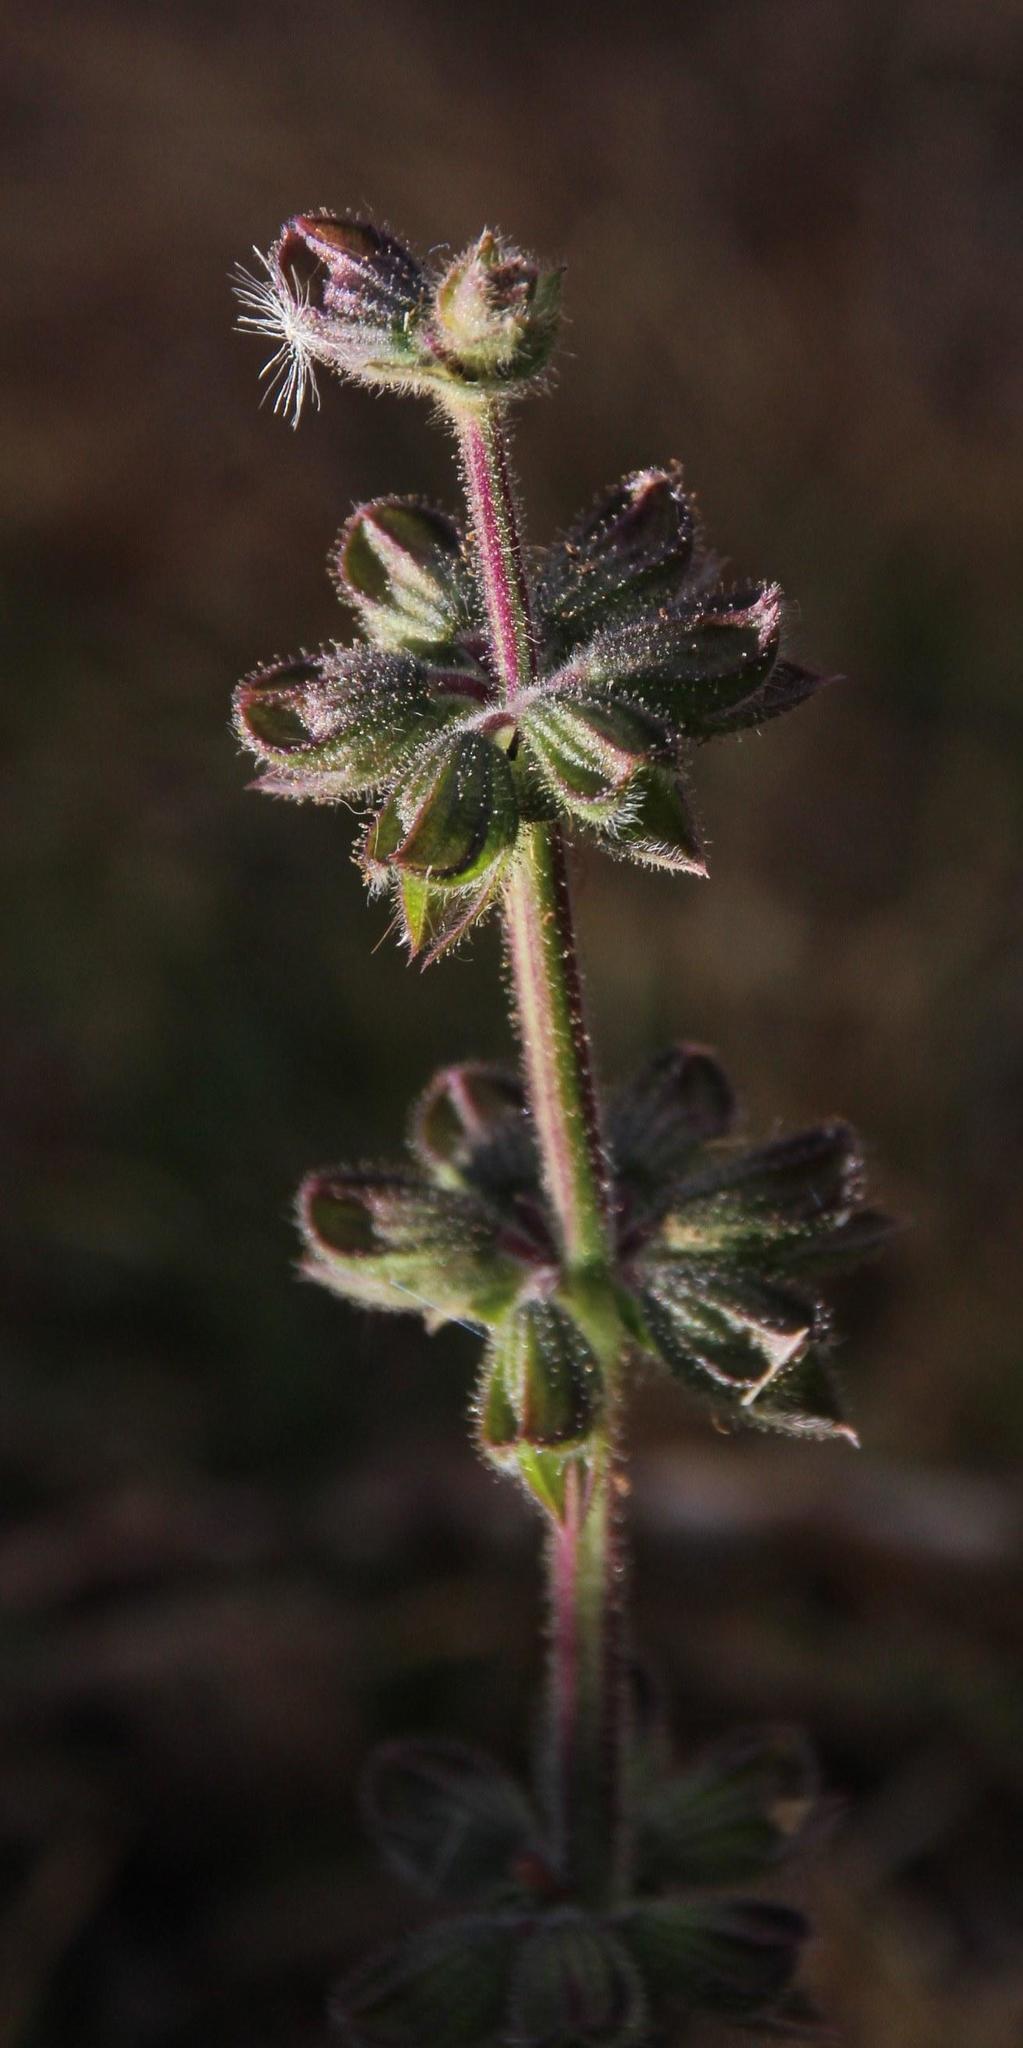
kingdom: Plantae
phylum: Tracheophyta
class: Magnoliopsida
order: Lamiales
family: Lamiaceae
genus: Salvia
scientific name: Salvia verbenaca
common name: Wild clary
